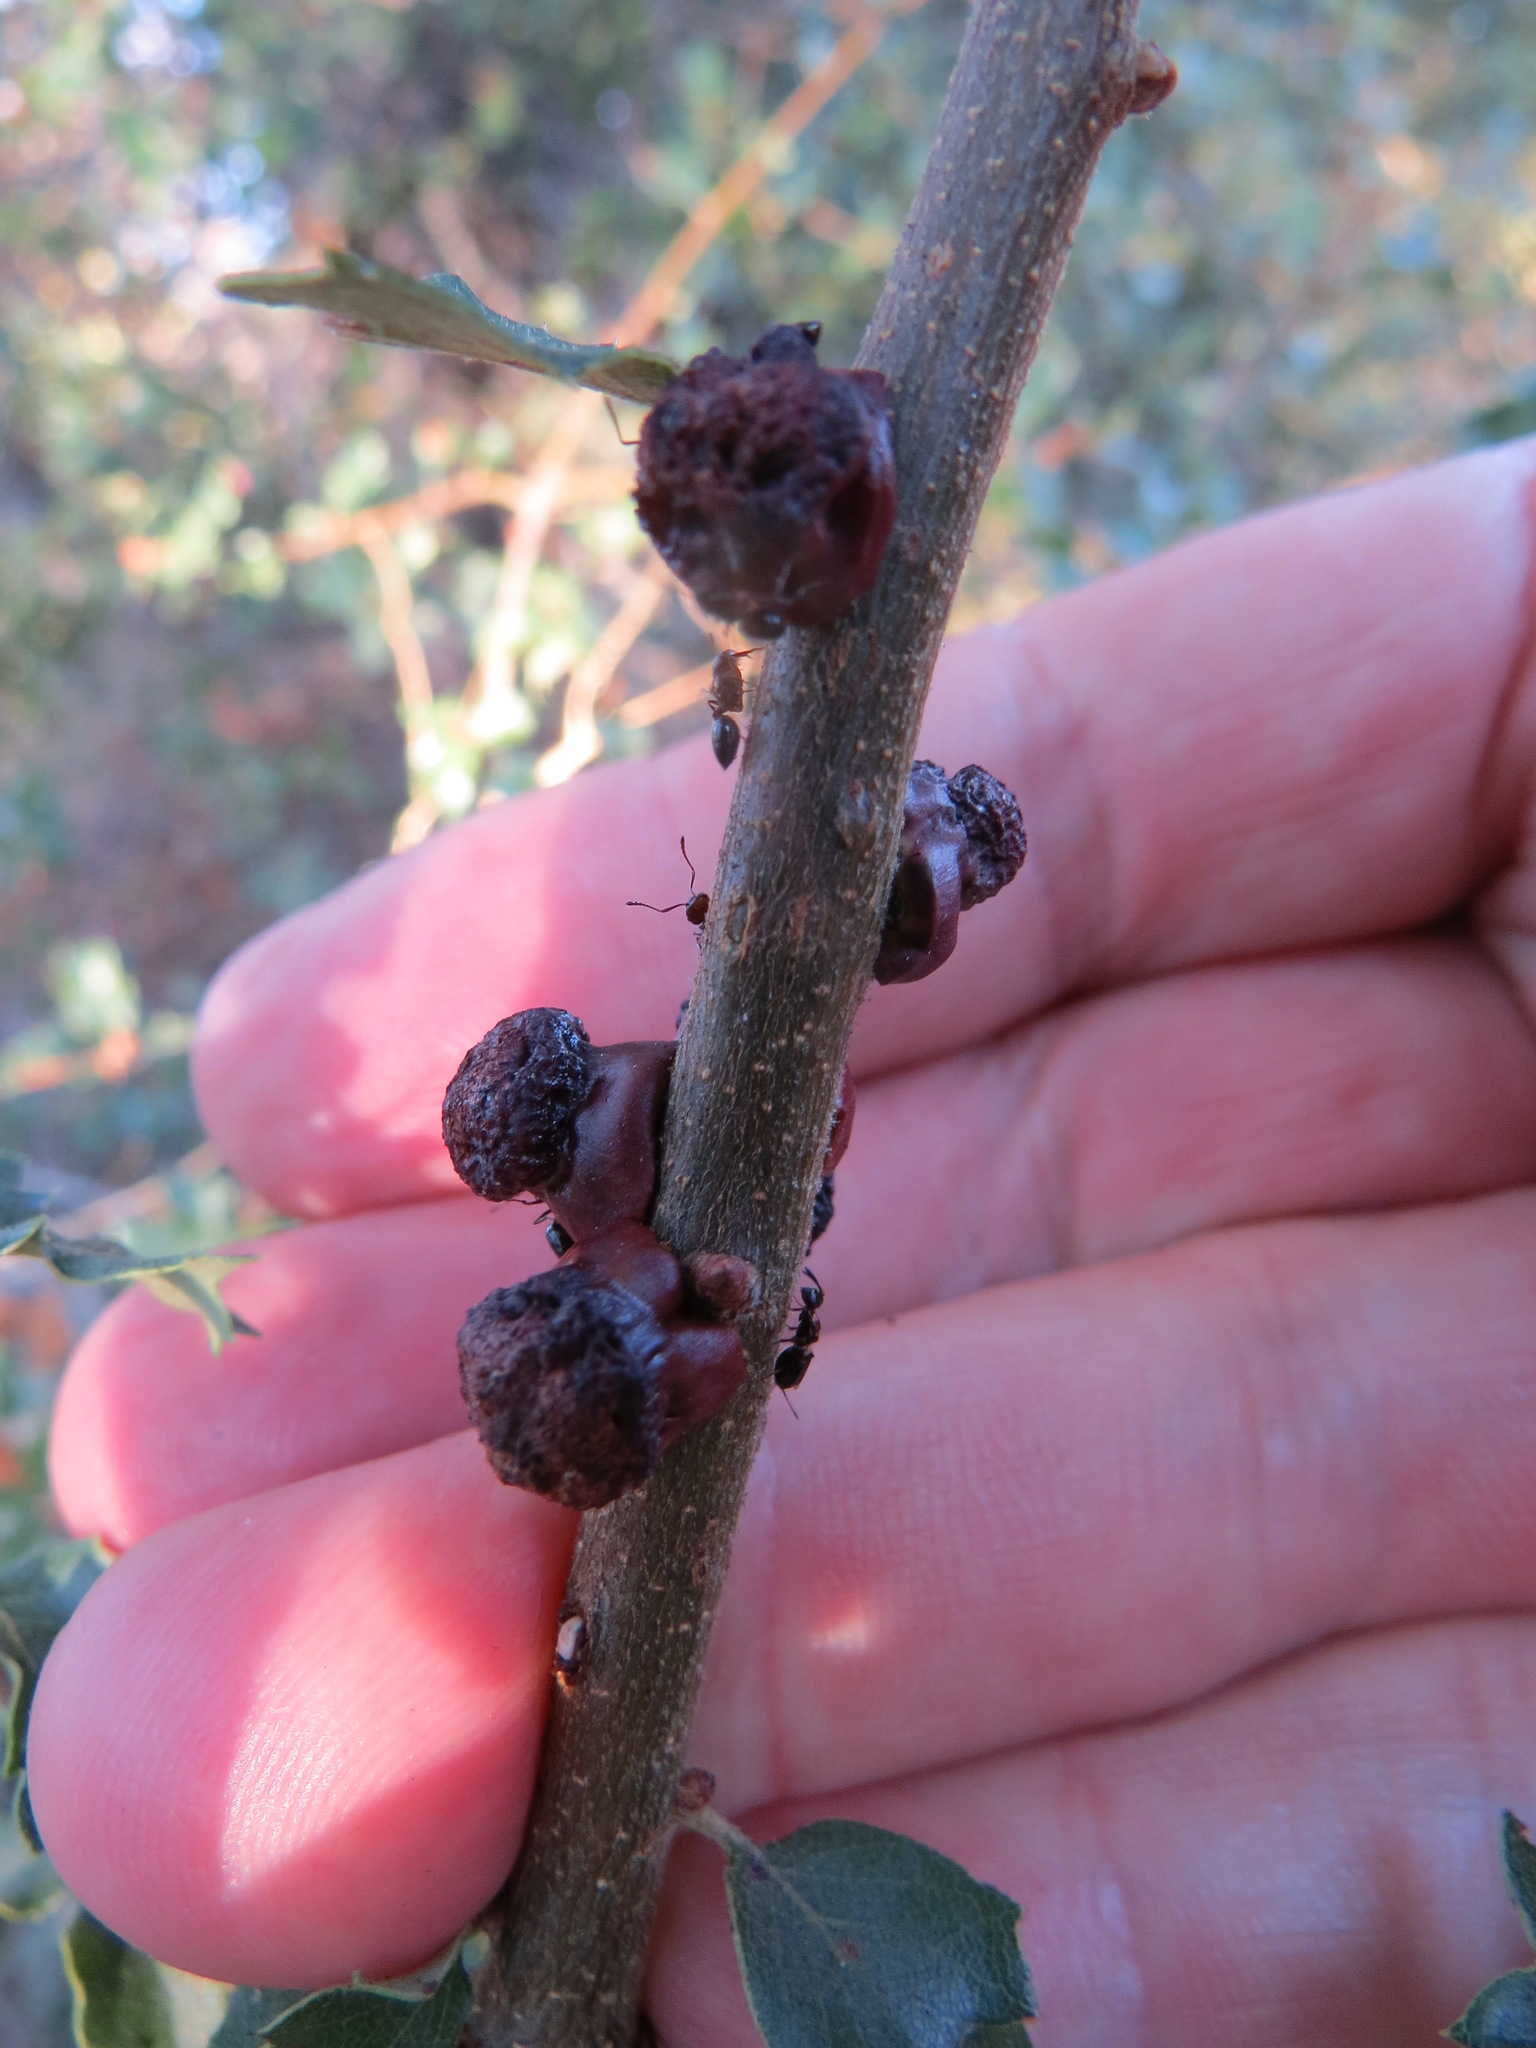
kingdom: Animalia
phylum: Arthropoda
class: Insecta
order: Hymenoptera
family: Cynipidae
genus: Disholcaspis
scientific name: Disholcaspis prehensa
